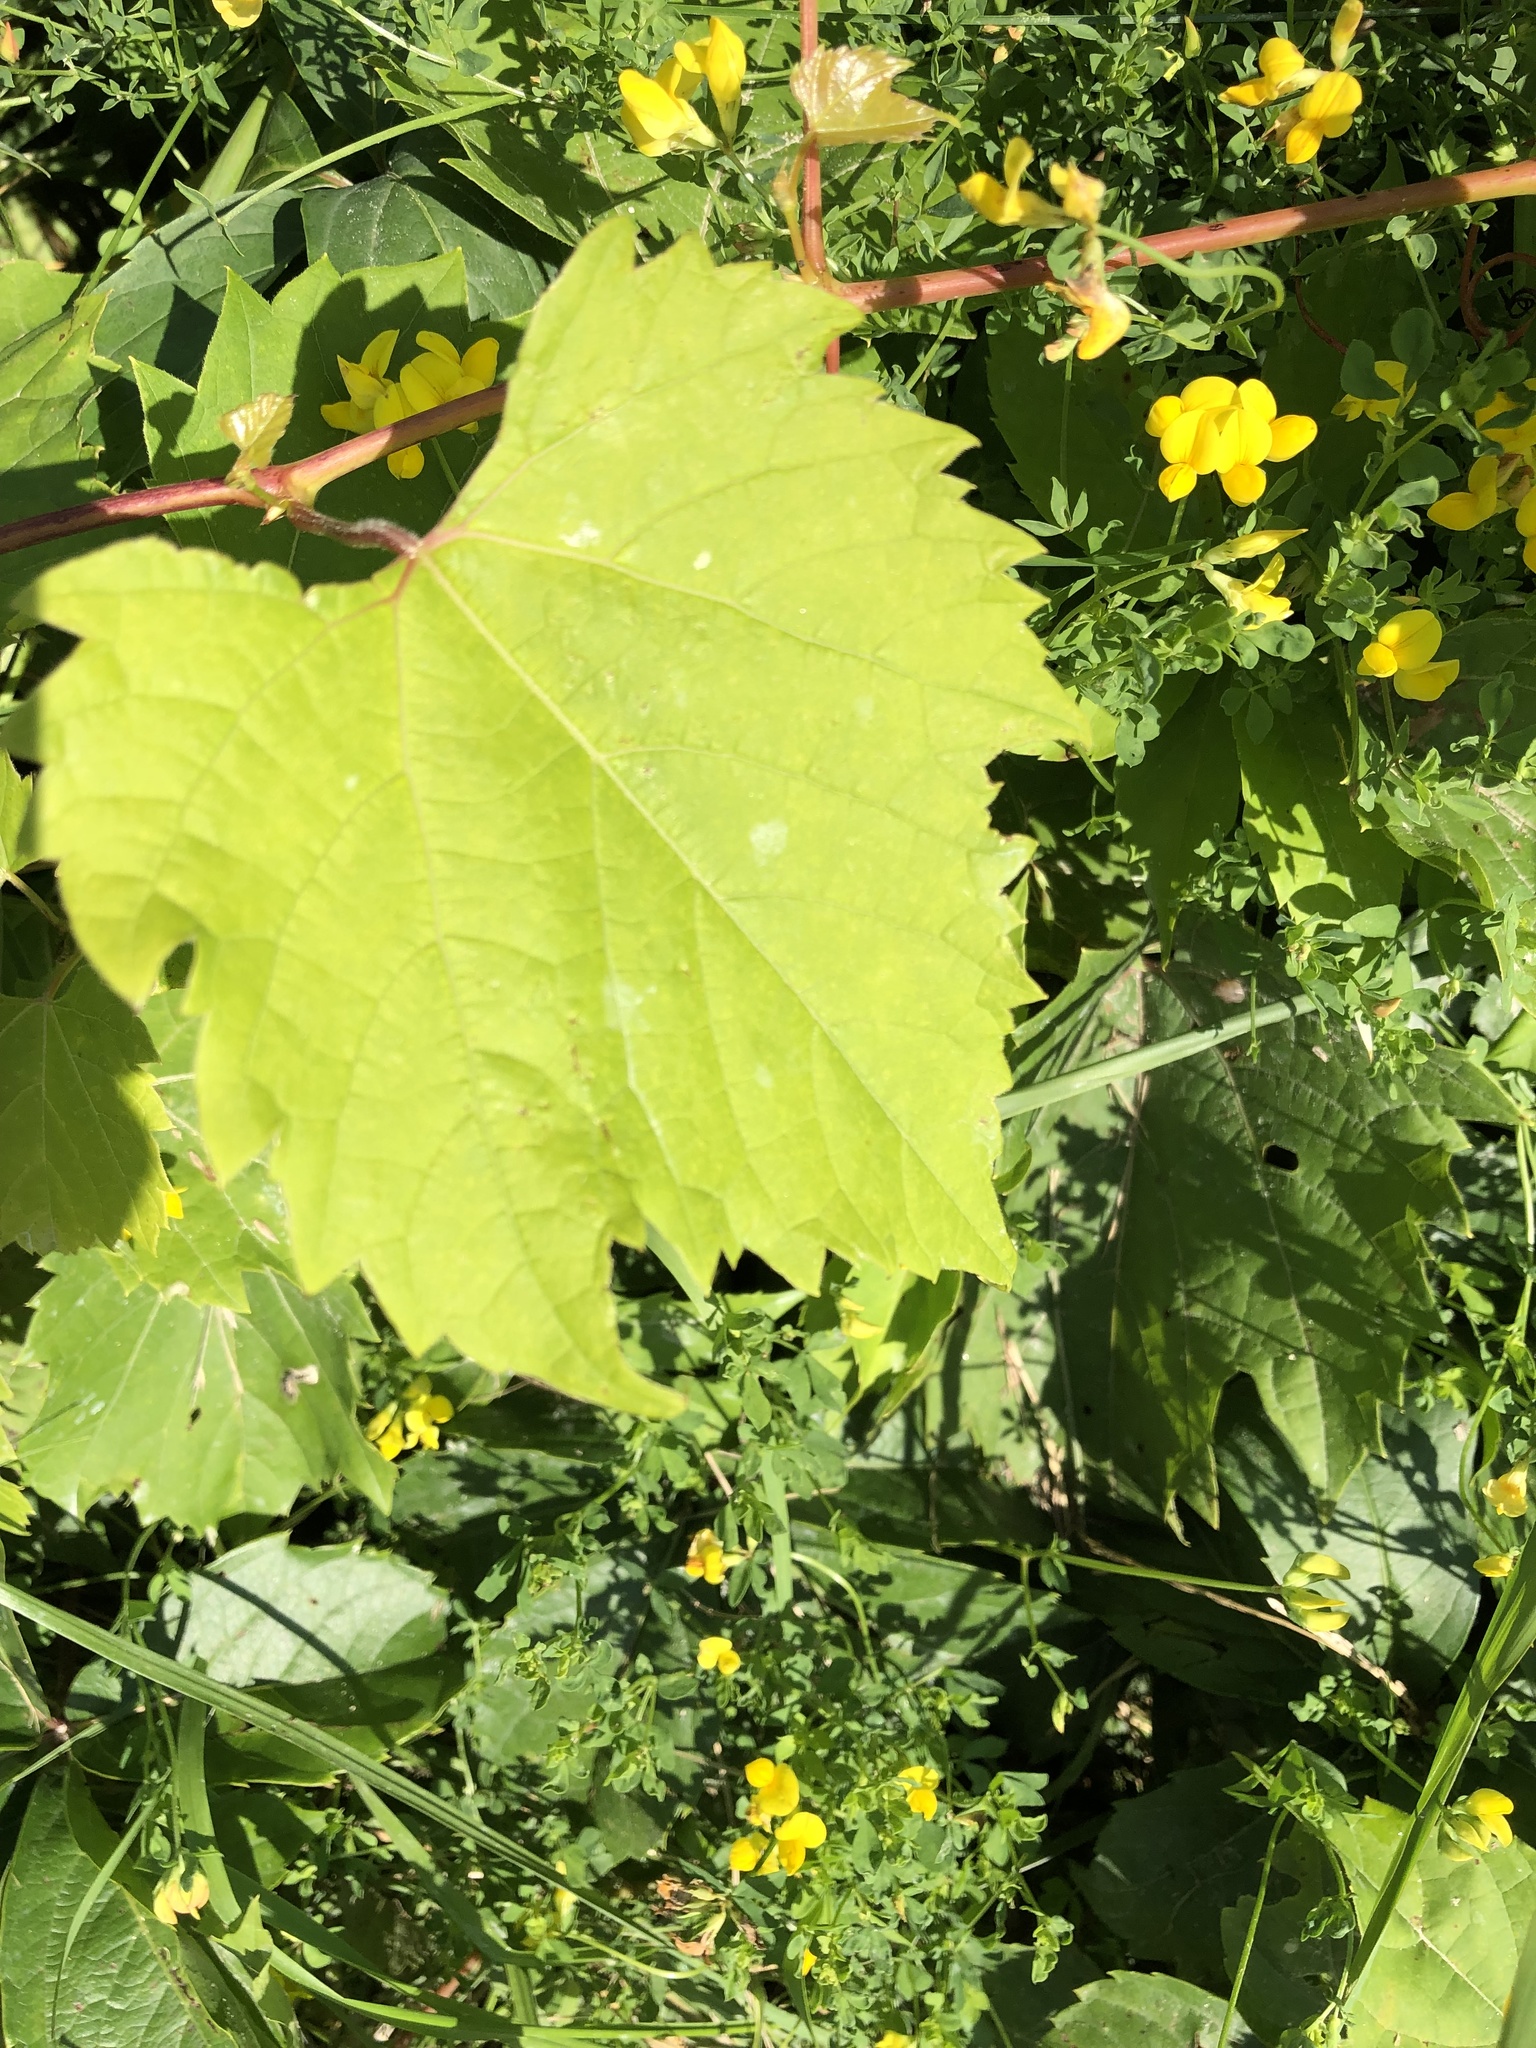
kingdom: Plantae
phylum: Tracheophyta
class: Magnoliopsida
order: Vitales
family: Vitaceae
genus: Vitis
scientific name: Vitis riparia
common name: Frost grape
